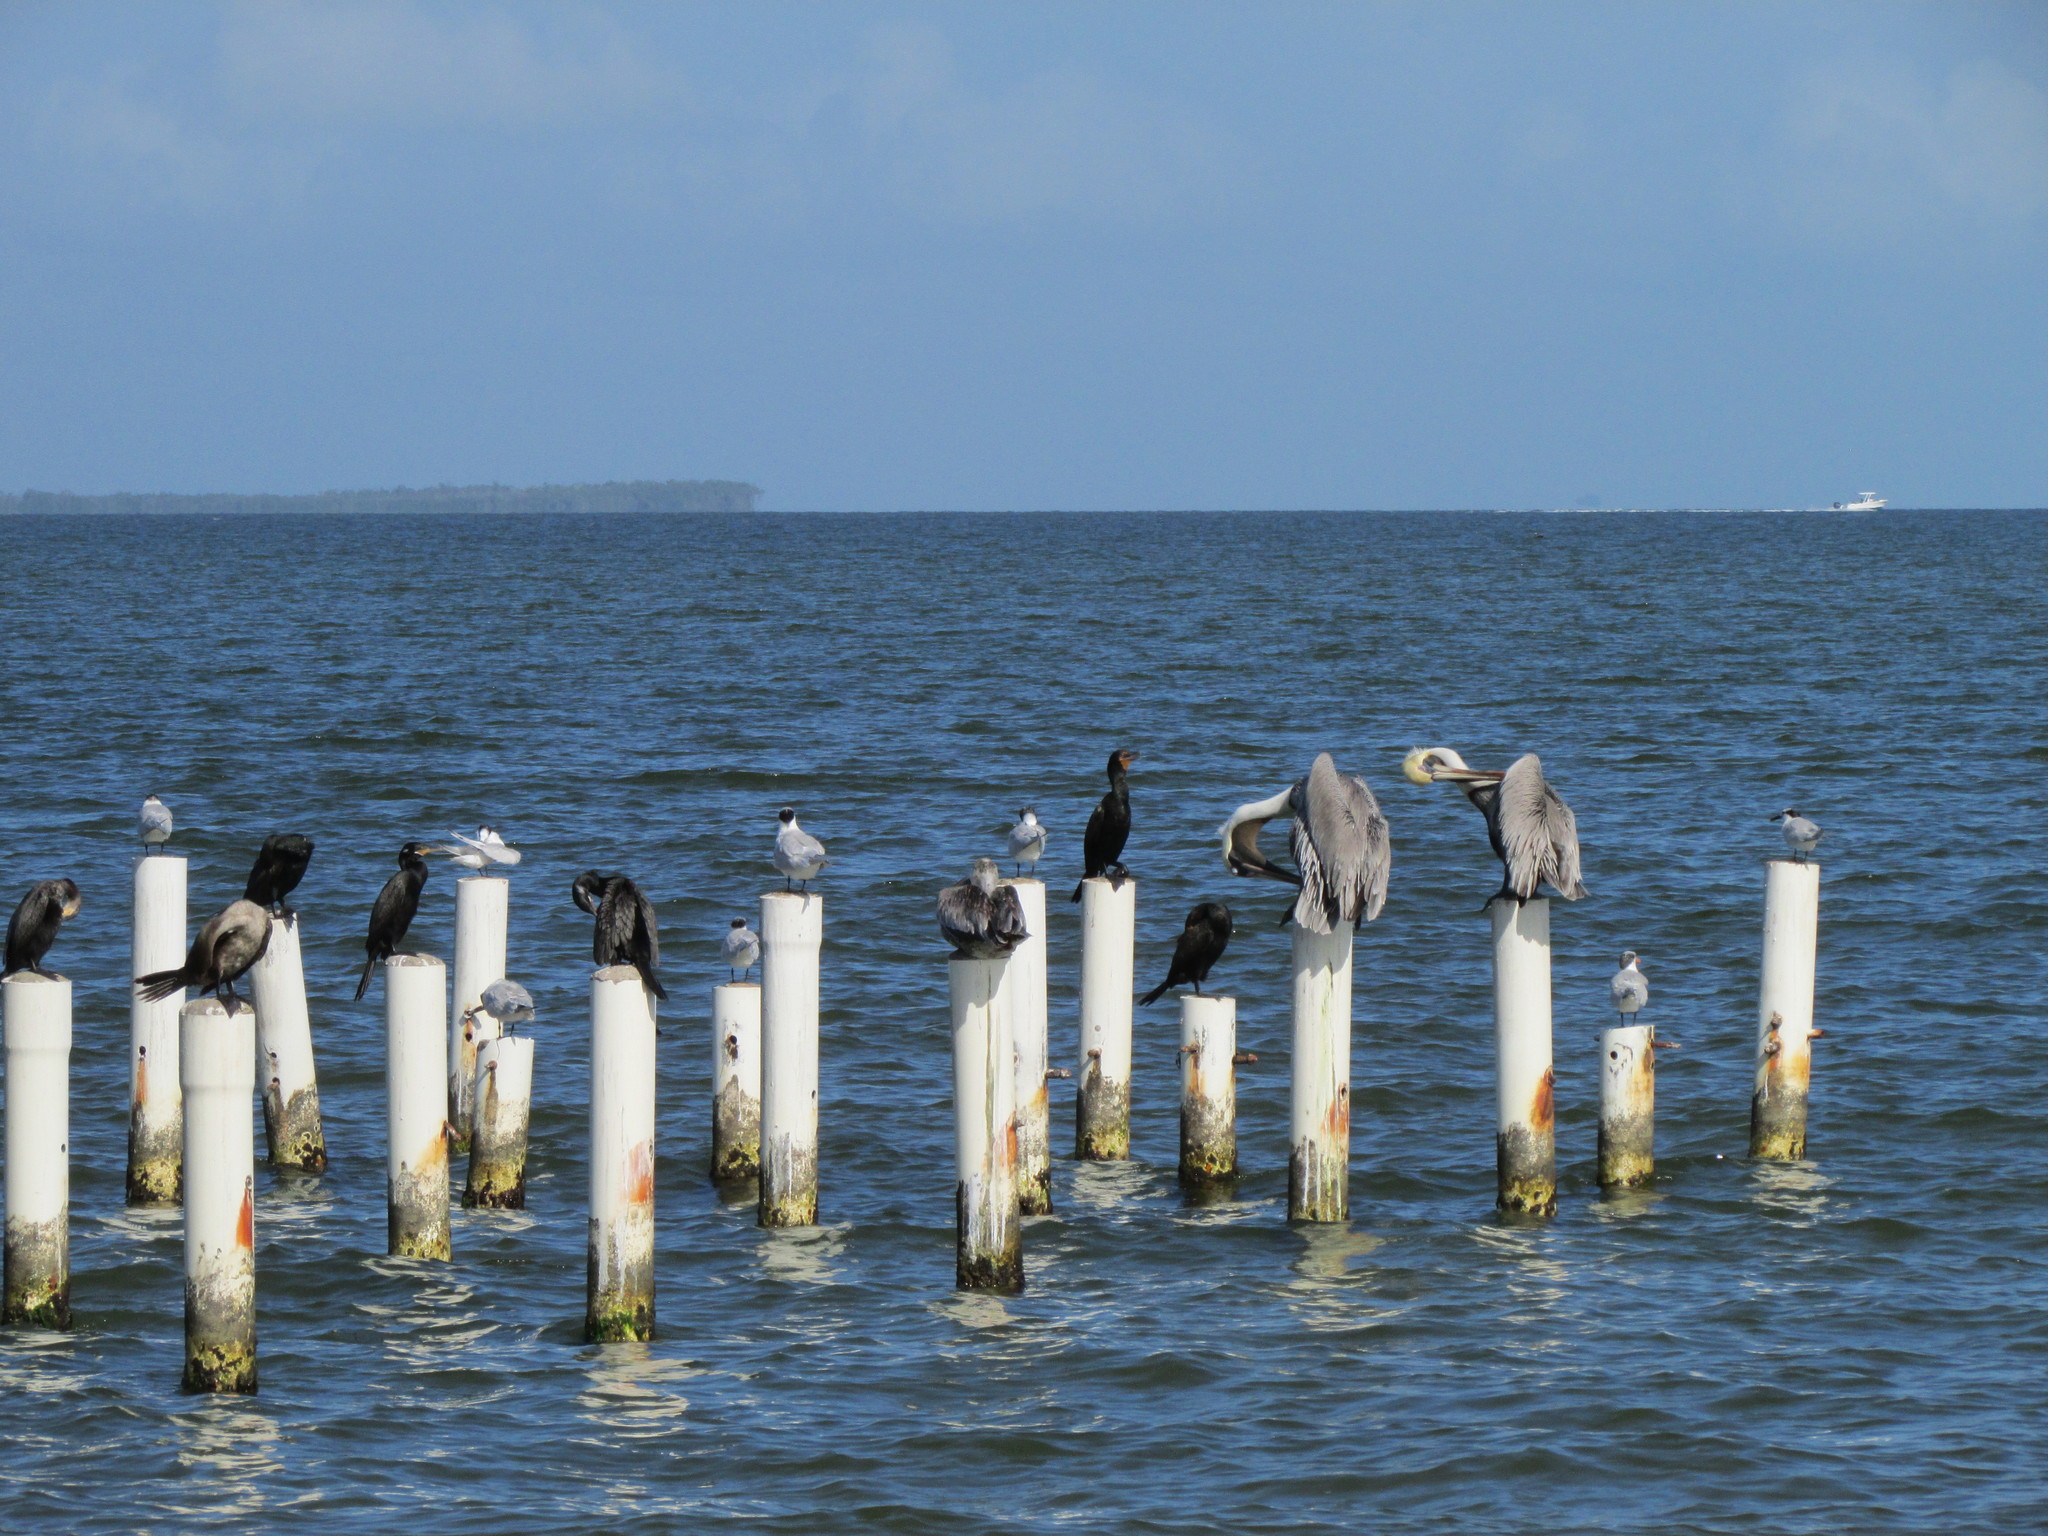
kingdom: Animalia
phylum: Chordata
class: Aves
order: Charadriiformes
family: Laridae
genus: Thalasseus
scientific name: Thalasseus sandvicensis
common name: Sandwich tern
